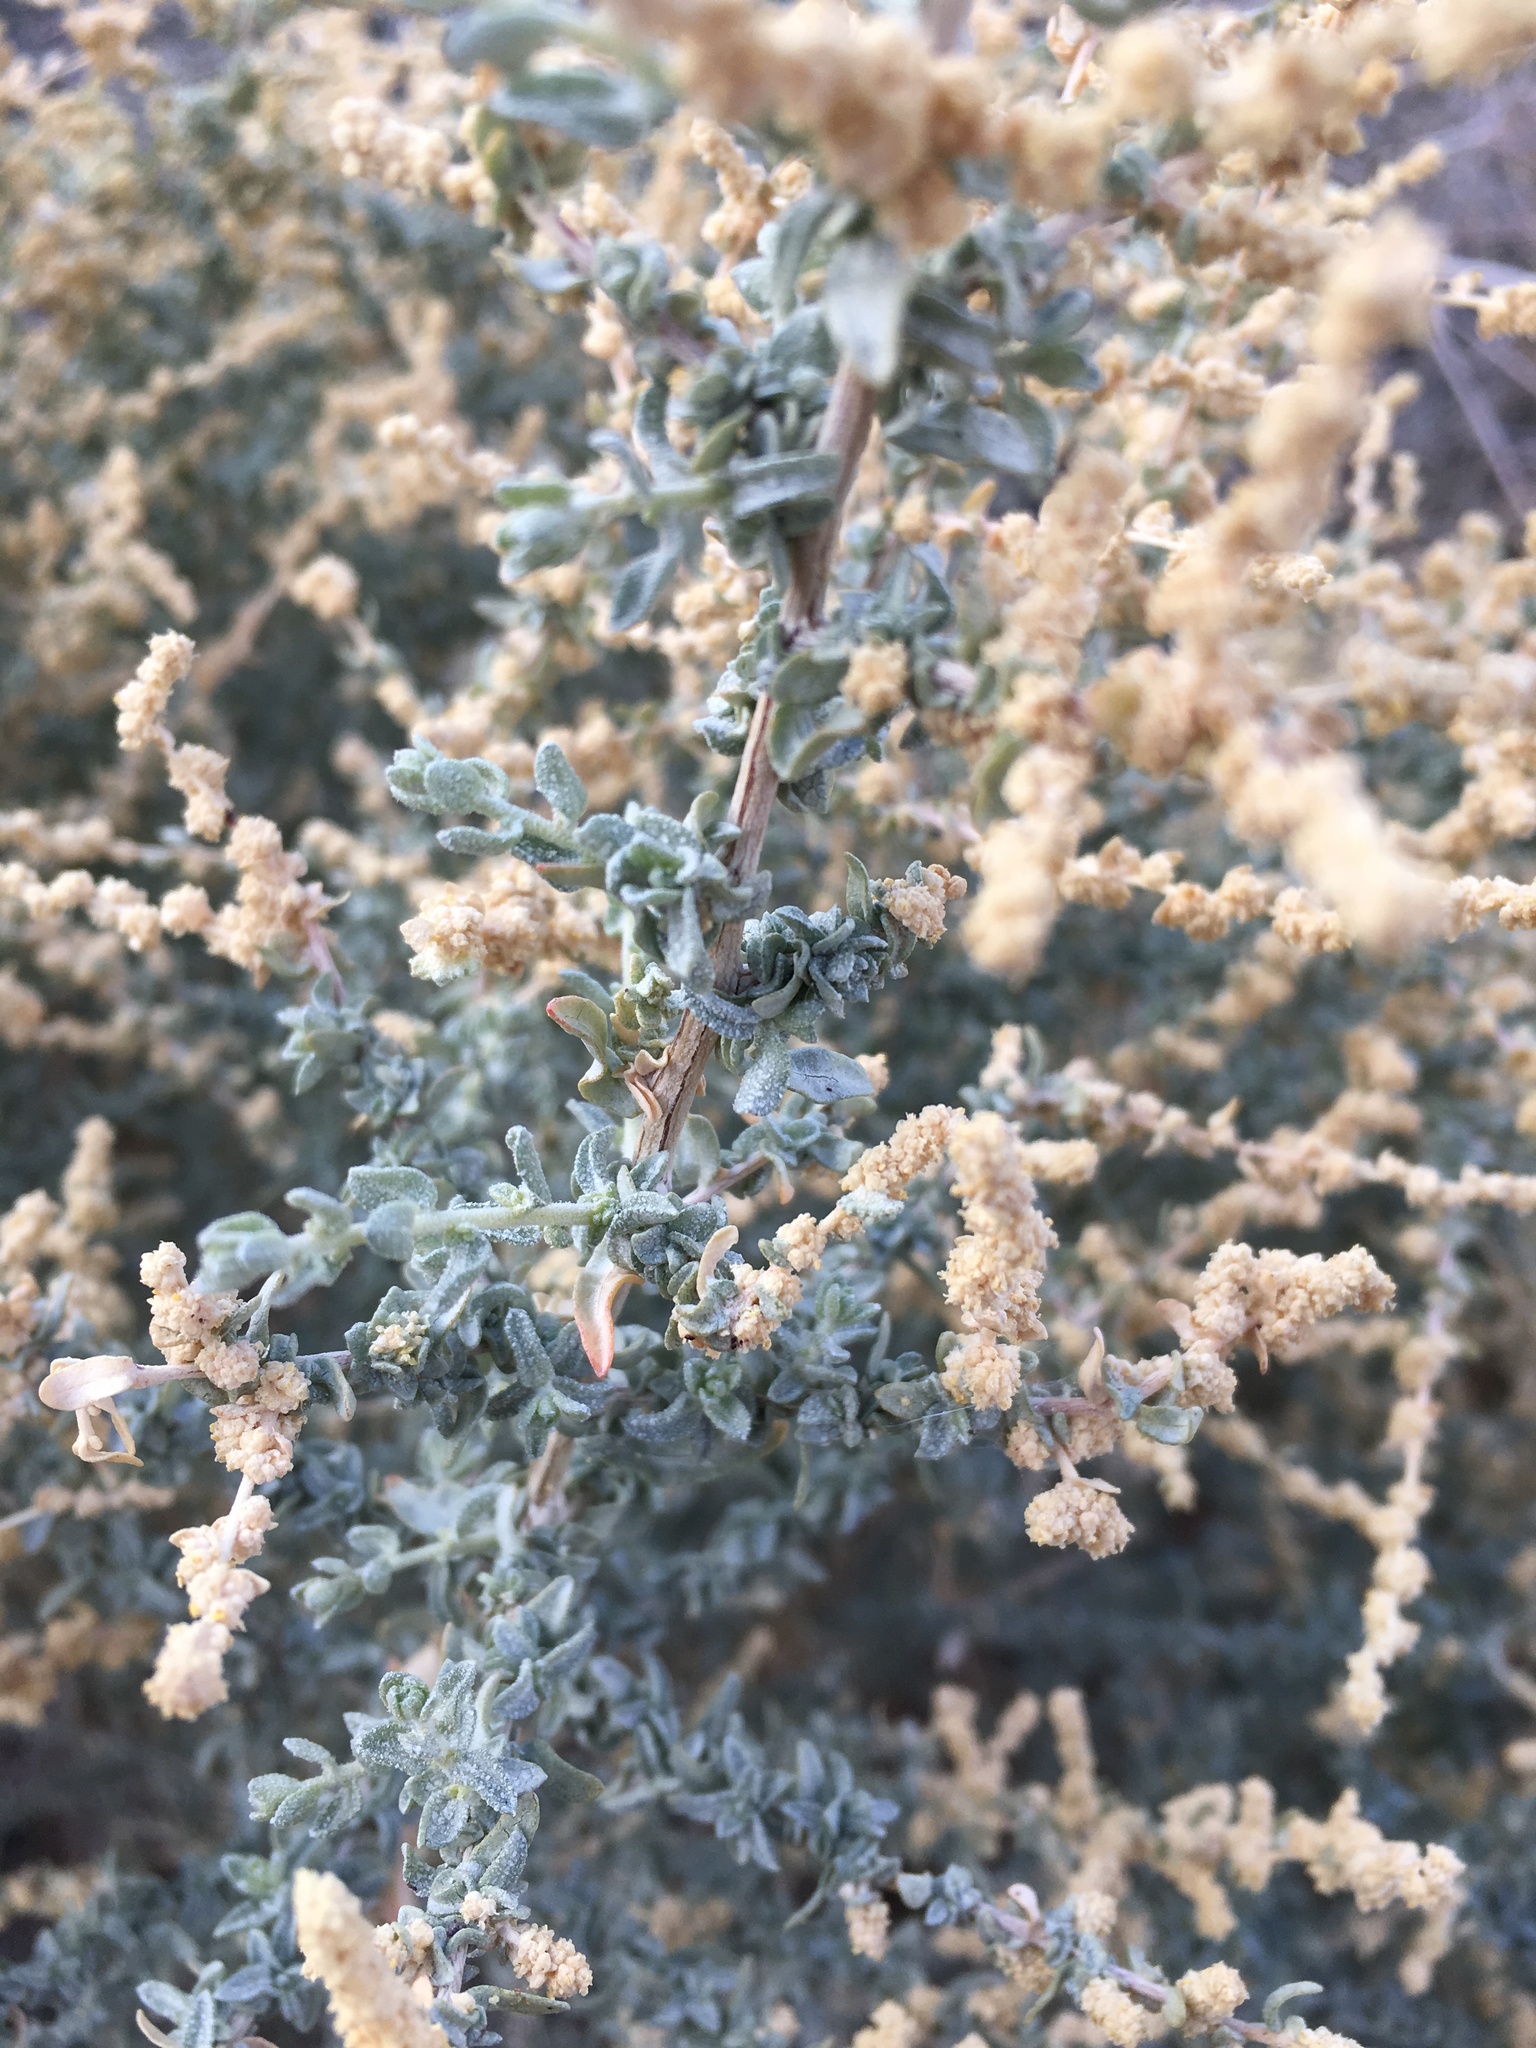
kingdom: Plantae
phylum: Tracheophyta
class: Magnoliopsida
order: Caryophyllales
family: Amaranthaceae
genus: Atriplex
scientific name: Atriplex polycarpa
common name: Desert saltbush
